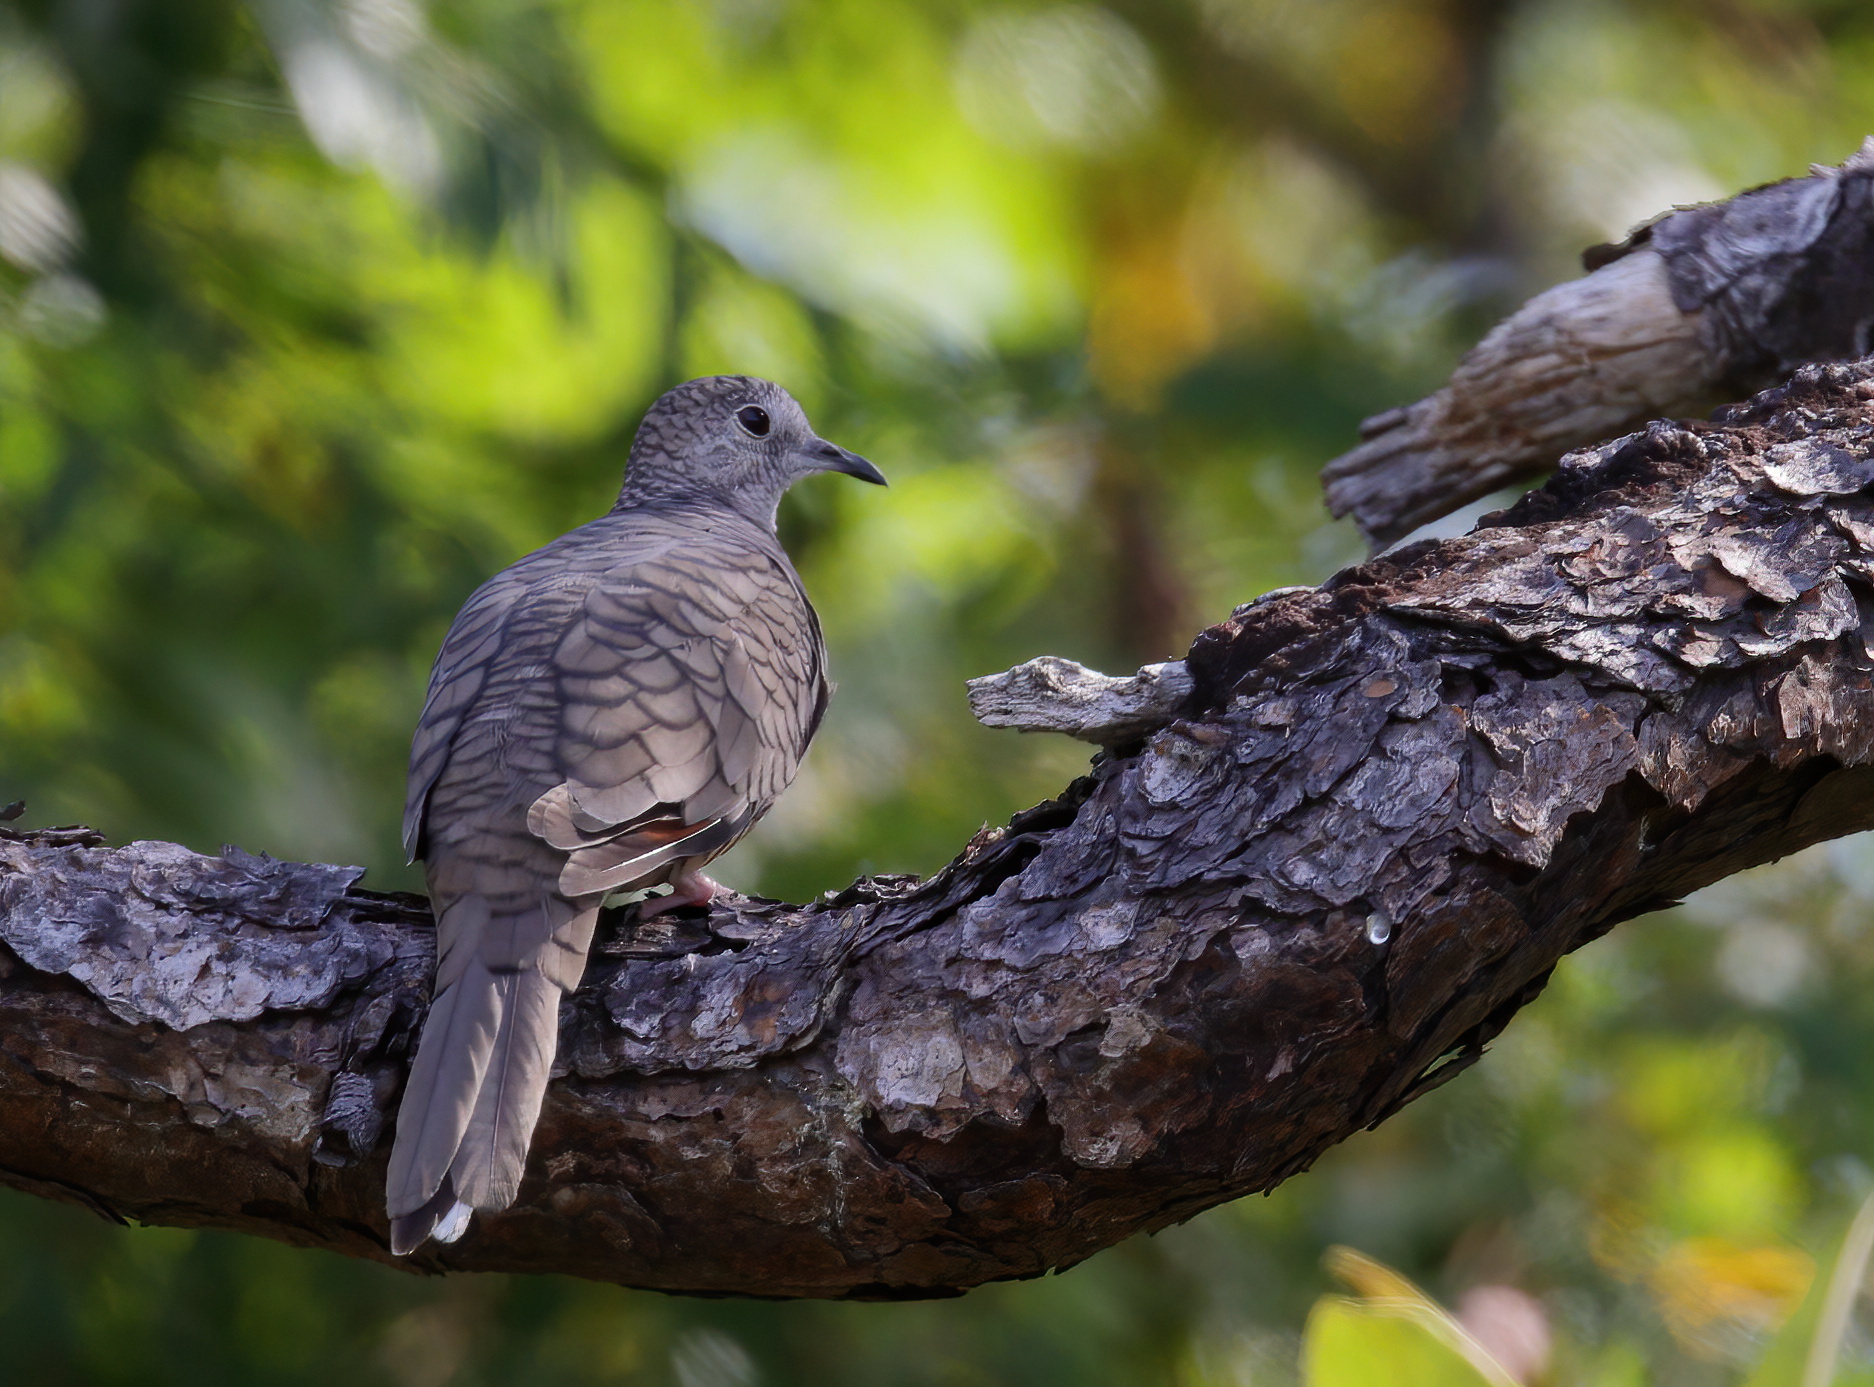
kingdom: Animalia
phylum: Chordata
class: Aves
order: Columbiformes
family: Columbidae
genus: Columbina
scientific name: Columbina inca
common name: Inca dove
